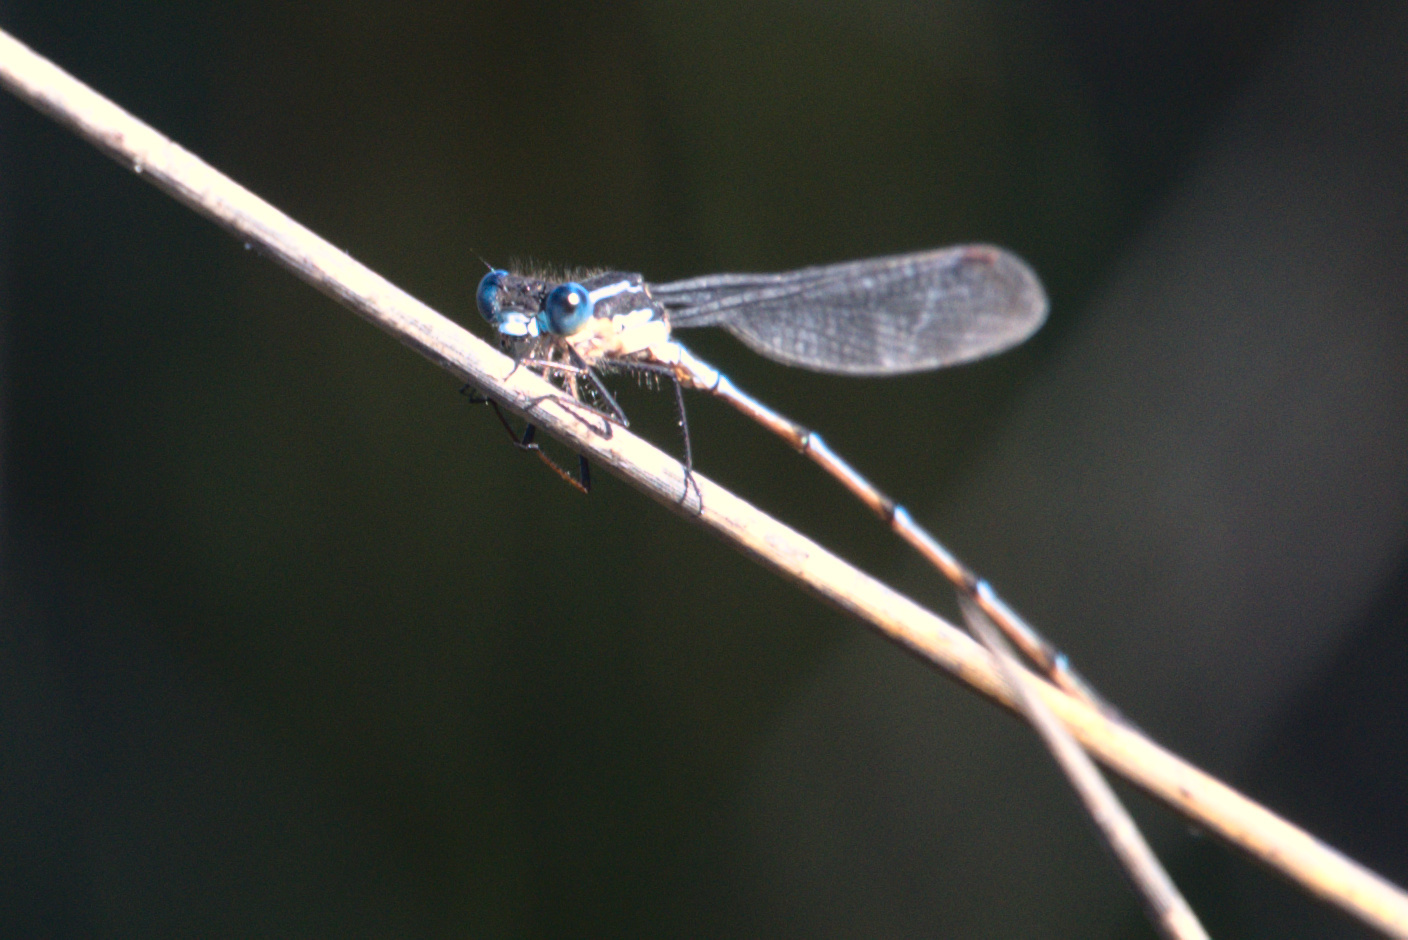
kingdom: Animalia
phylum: Arthropoda
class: Insecta
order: Odonata
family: Lestidae
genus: Austrolestes
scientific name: Austrolestes colensonis
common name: Blue damselfly
